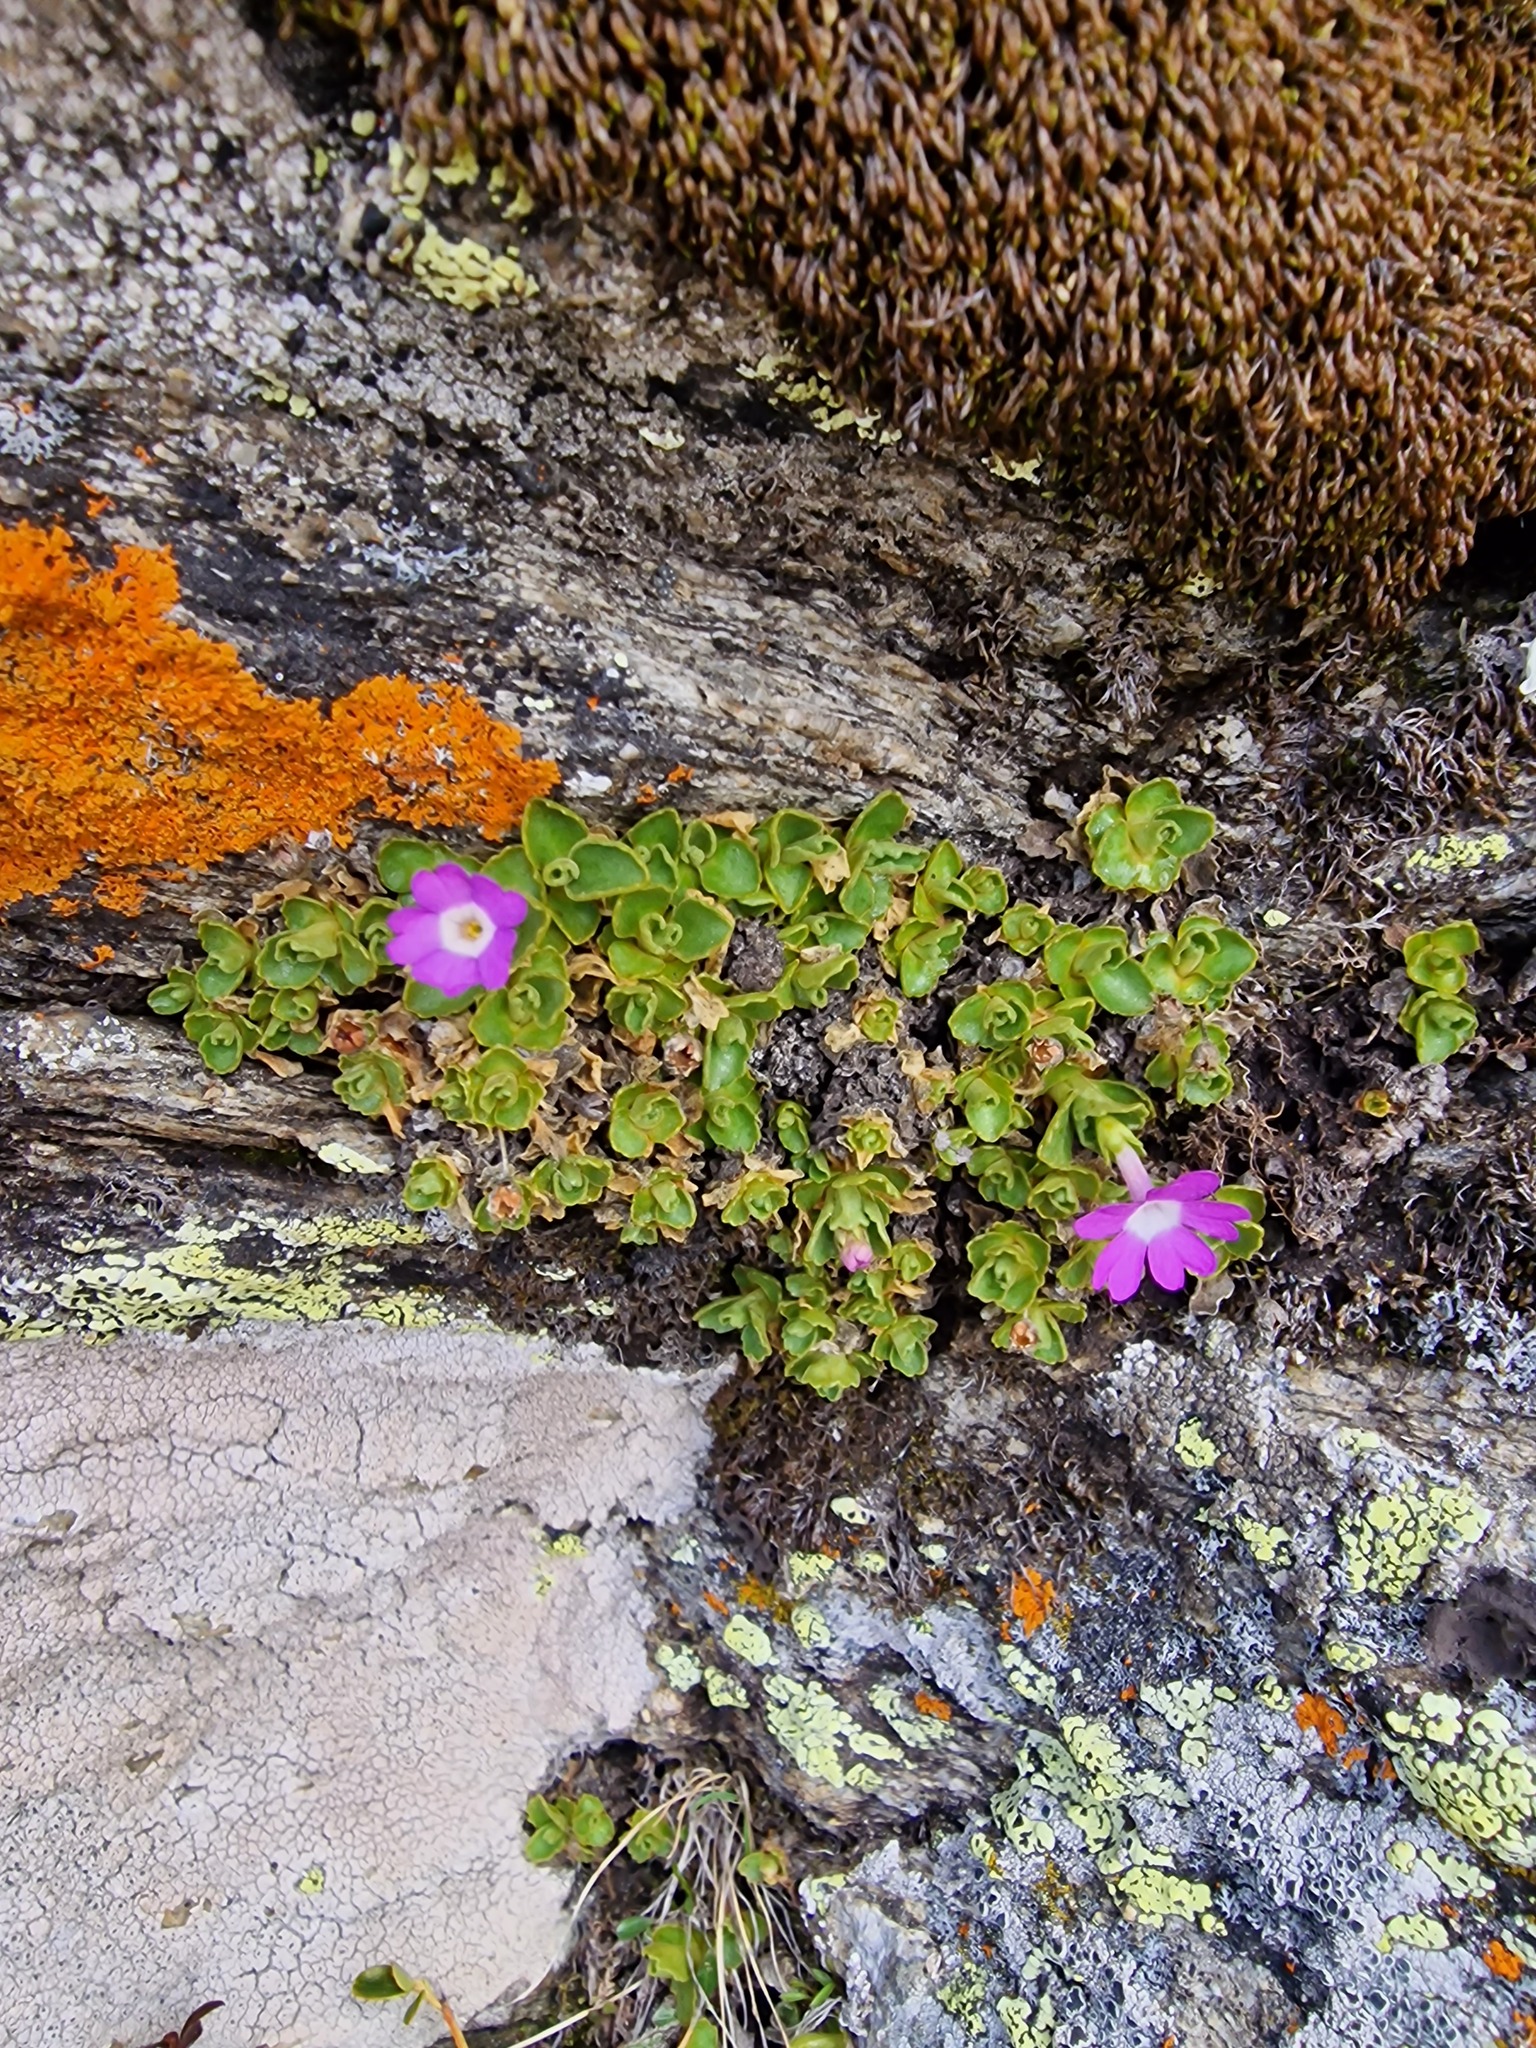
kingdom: Plantae
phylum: Tracheophyta
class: Magnoliopsida
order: Ericales
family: Primulaceae
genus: Primula
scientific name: Primula hirsuta
